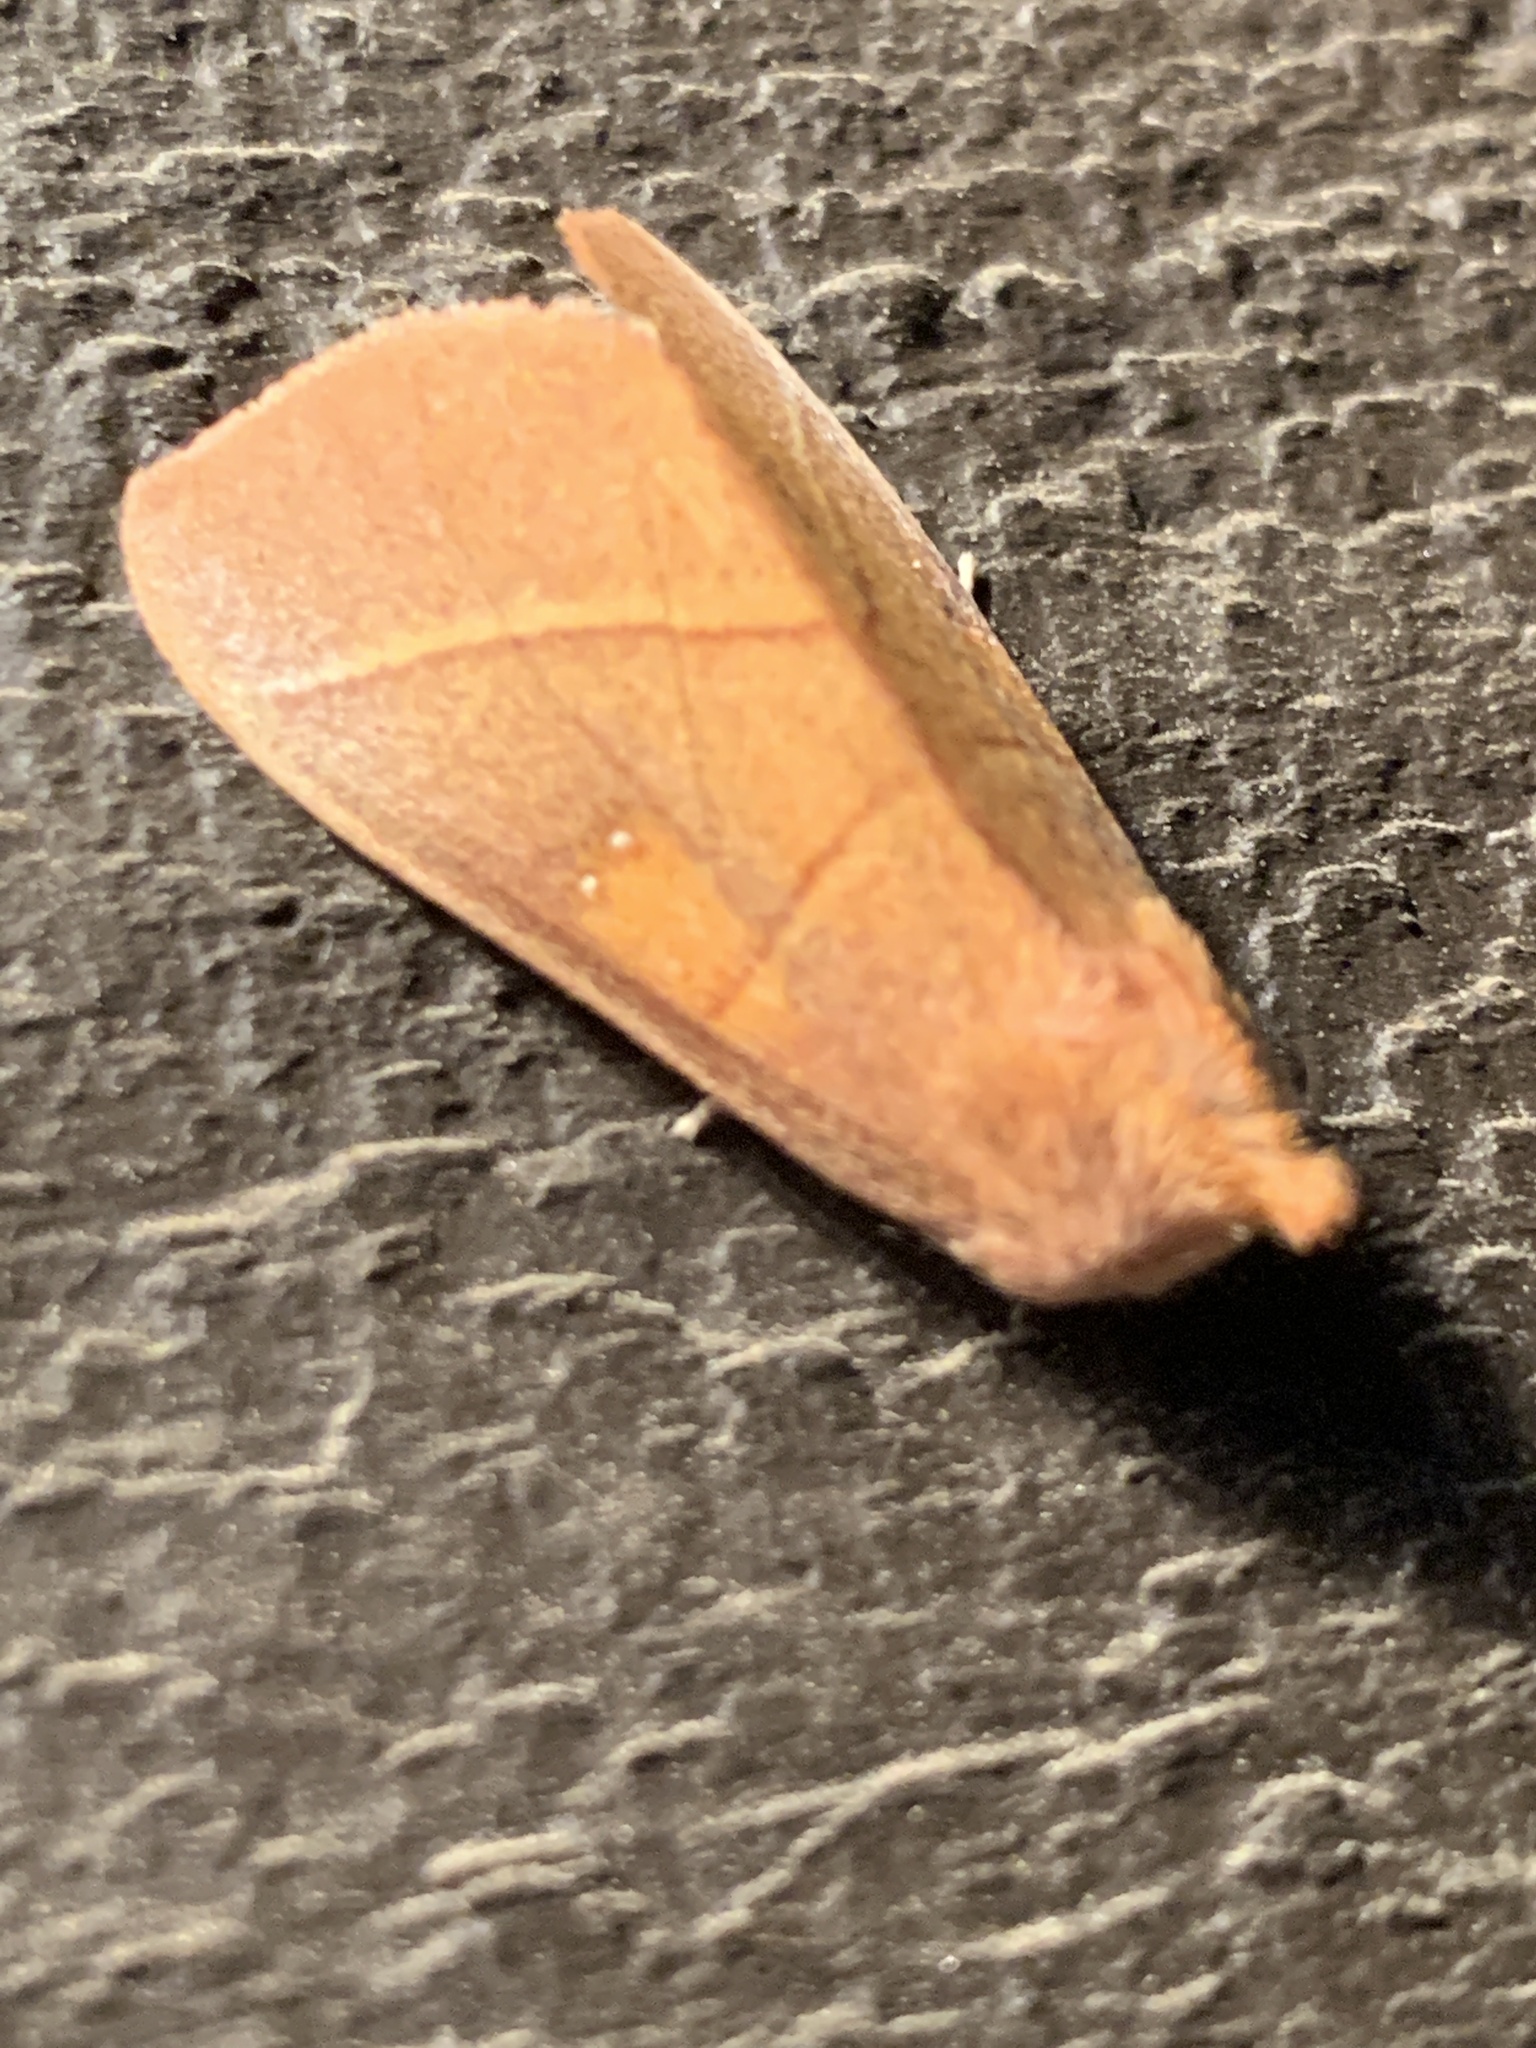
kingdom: Animalia
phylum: Arthropoda
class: Insecta
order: Lepidoptera
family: Notodontidae
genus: Nadata
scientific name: Nadata gibbosa
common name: White-dotted prominent
